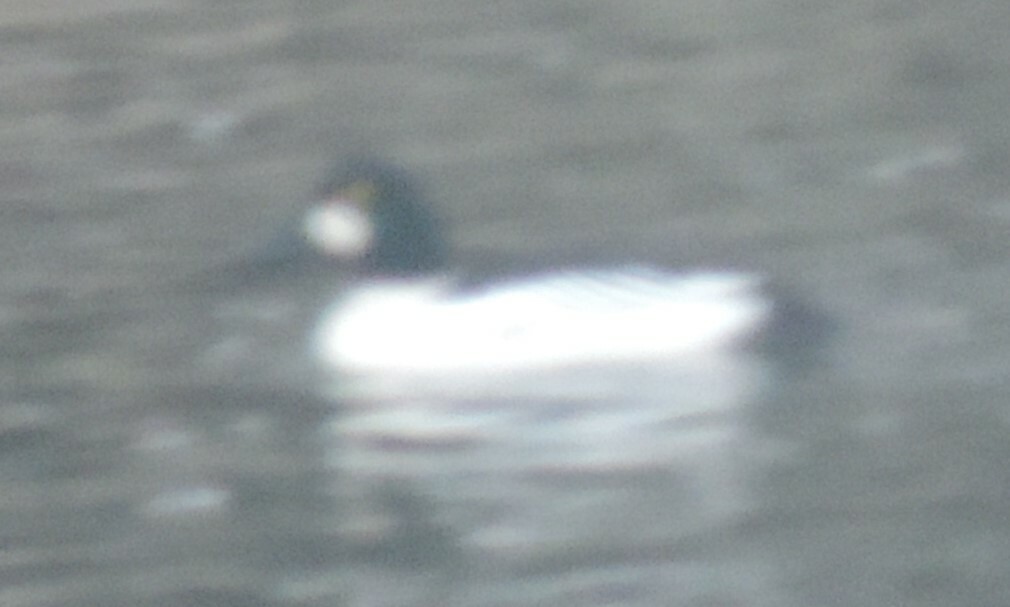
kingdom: Animalia
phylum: Chordata
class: Aves
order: Anseriformes
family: Anatidae
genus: Bucephala
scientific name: Bucephala clangula
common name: Common goldeneye
